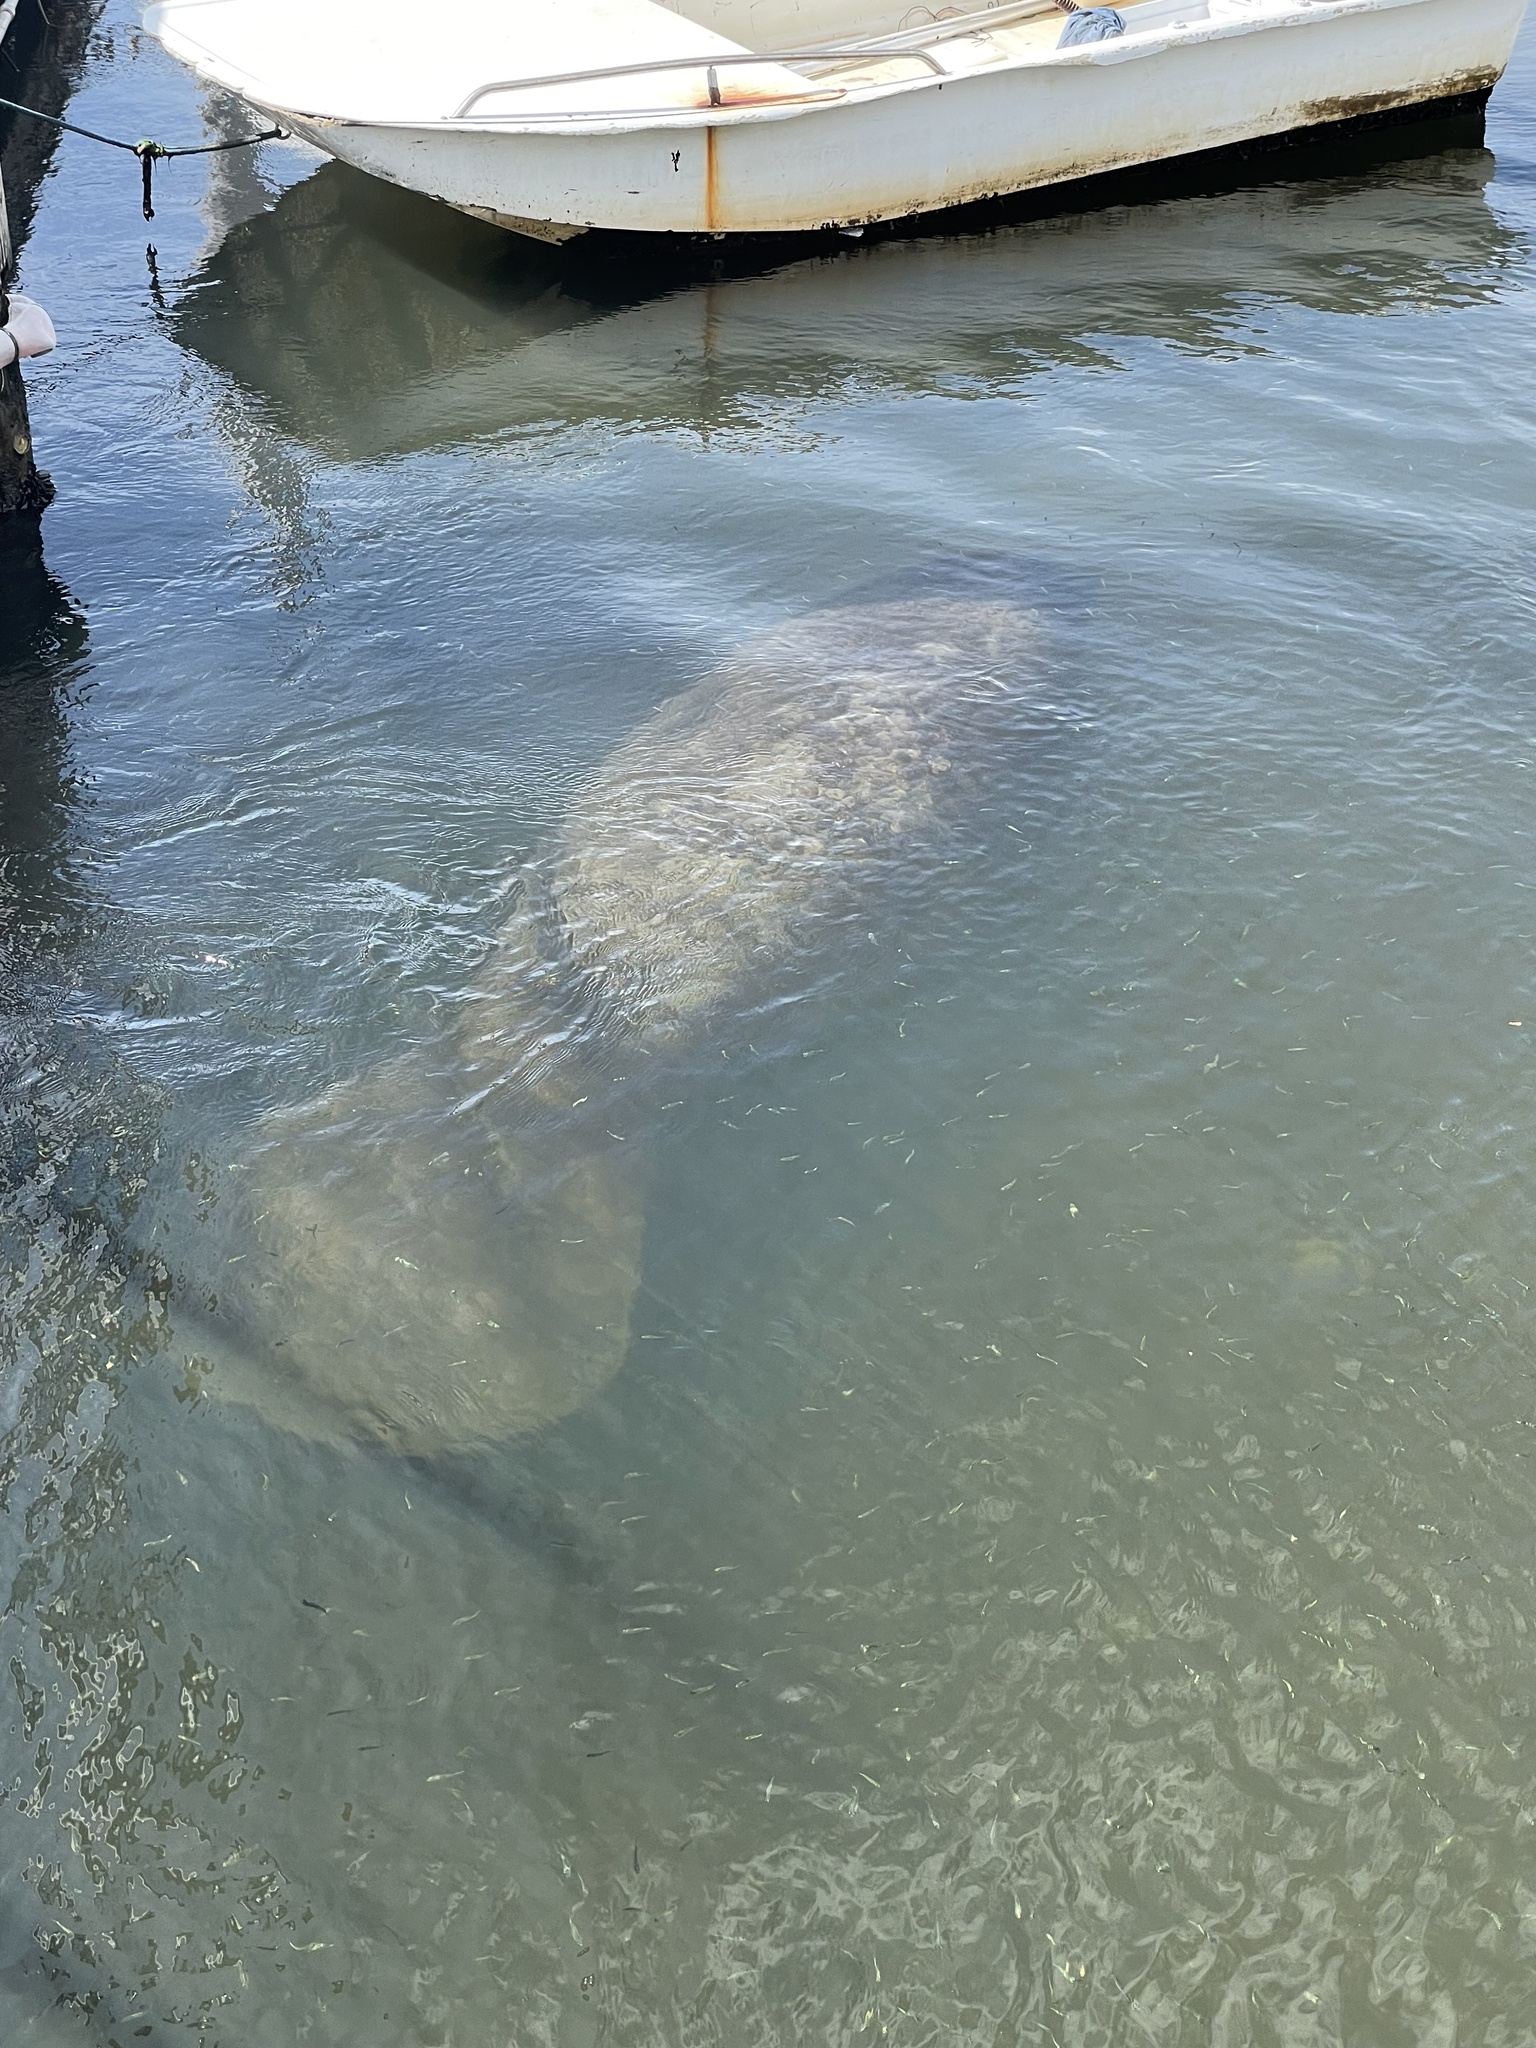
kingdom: Animalia
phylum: Chordata
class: Mammalia
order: Sirenia
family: Trichechidae
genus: Trichechus
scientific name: Trichechus manatus
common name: West indian manatee
